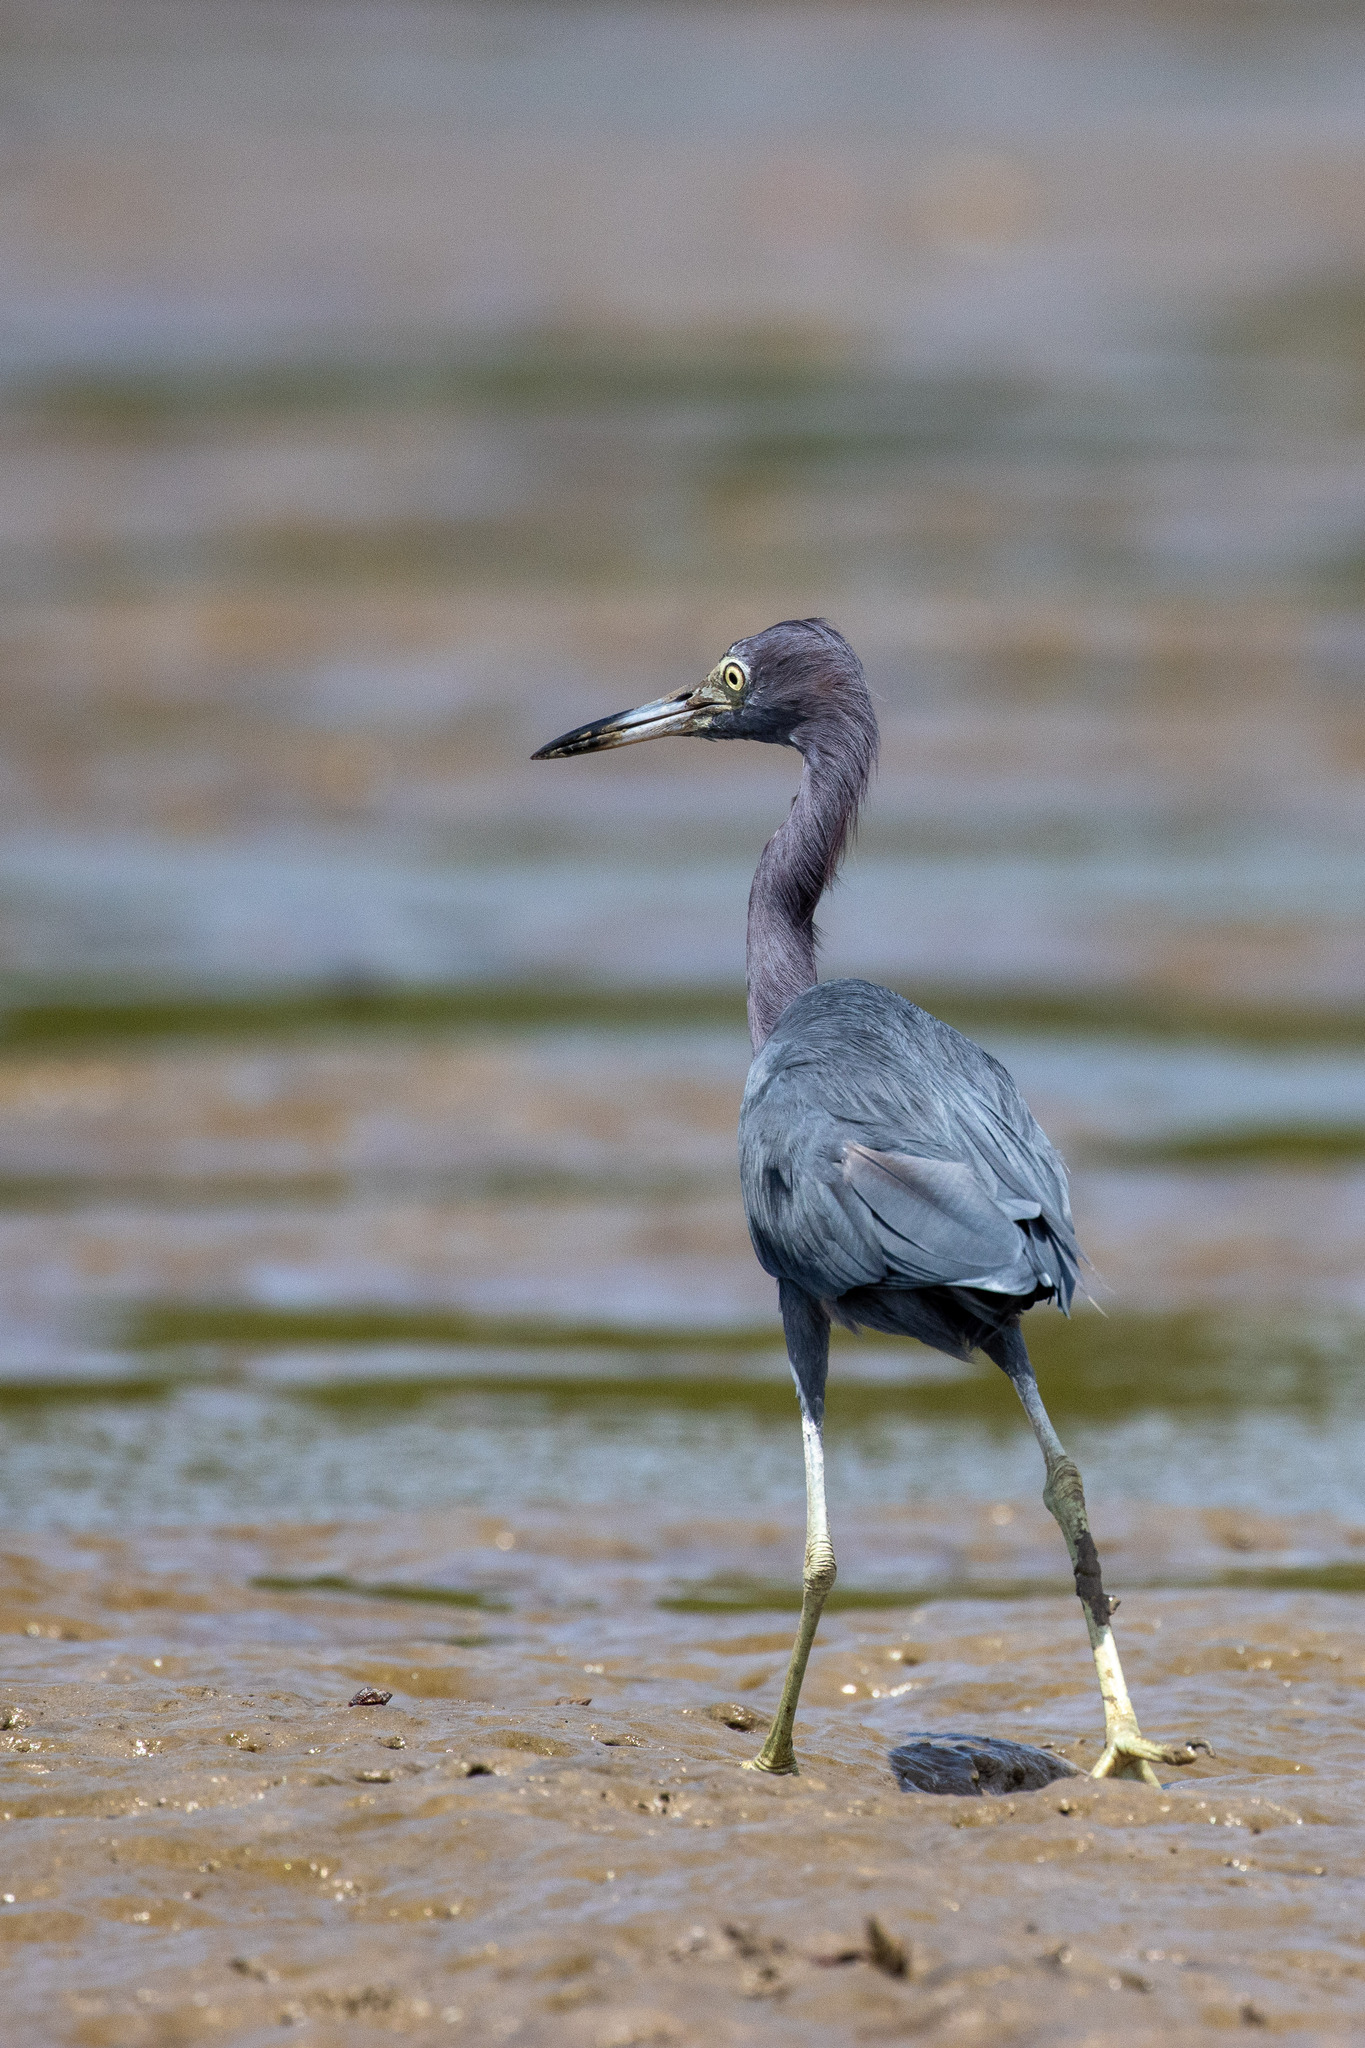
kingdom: Animalia
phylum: Chordata
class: Aves
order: Pelecaniformes
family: Ardeidae
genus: Egretta
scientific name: Egretta caerulea
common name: Little blue heron
